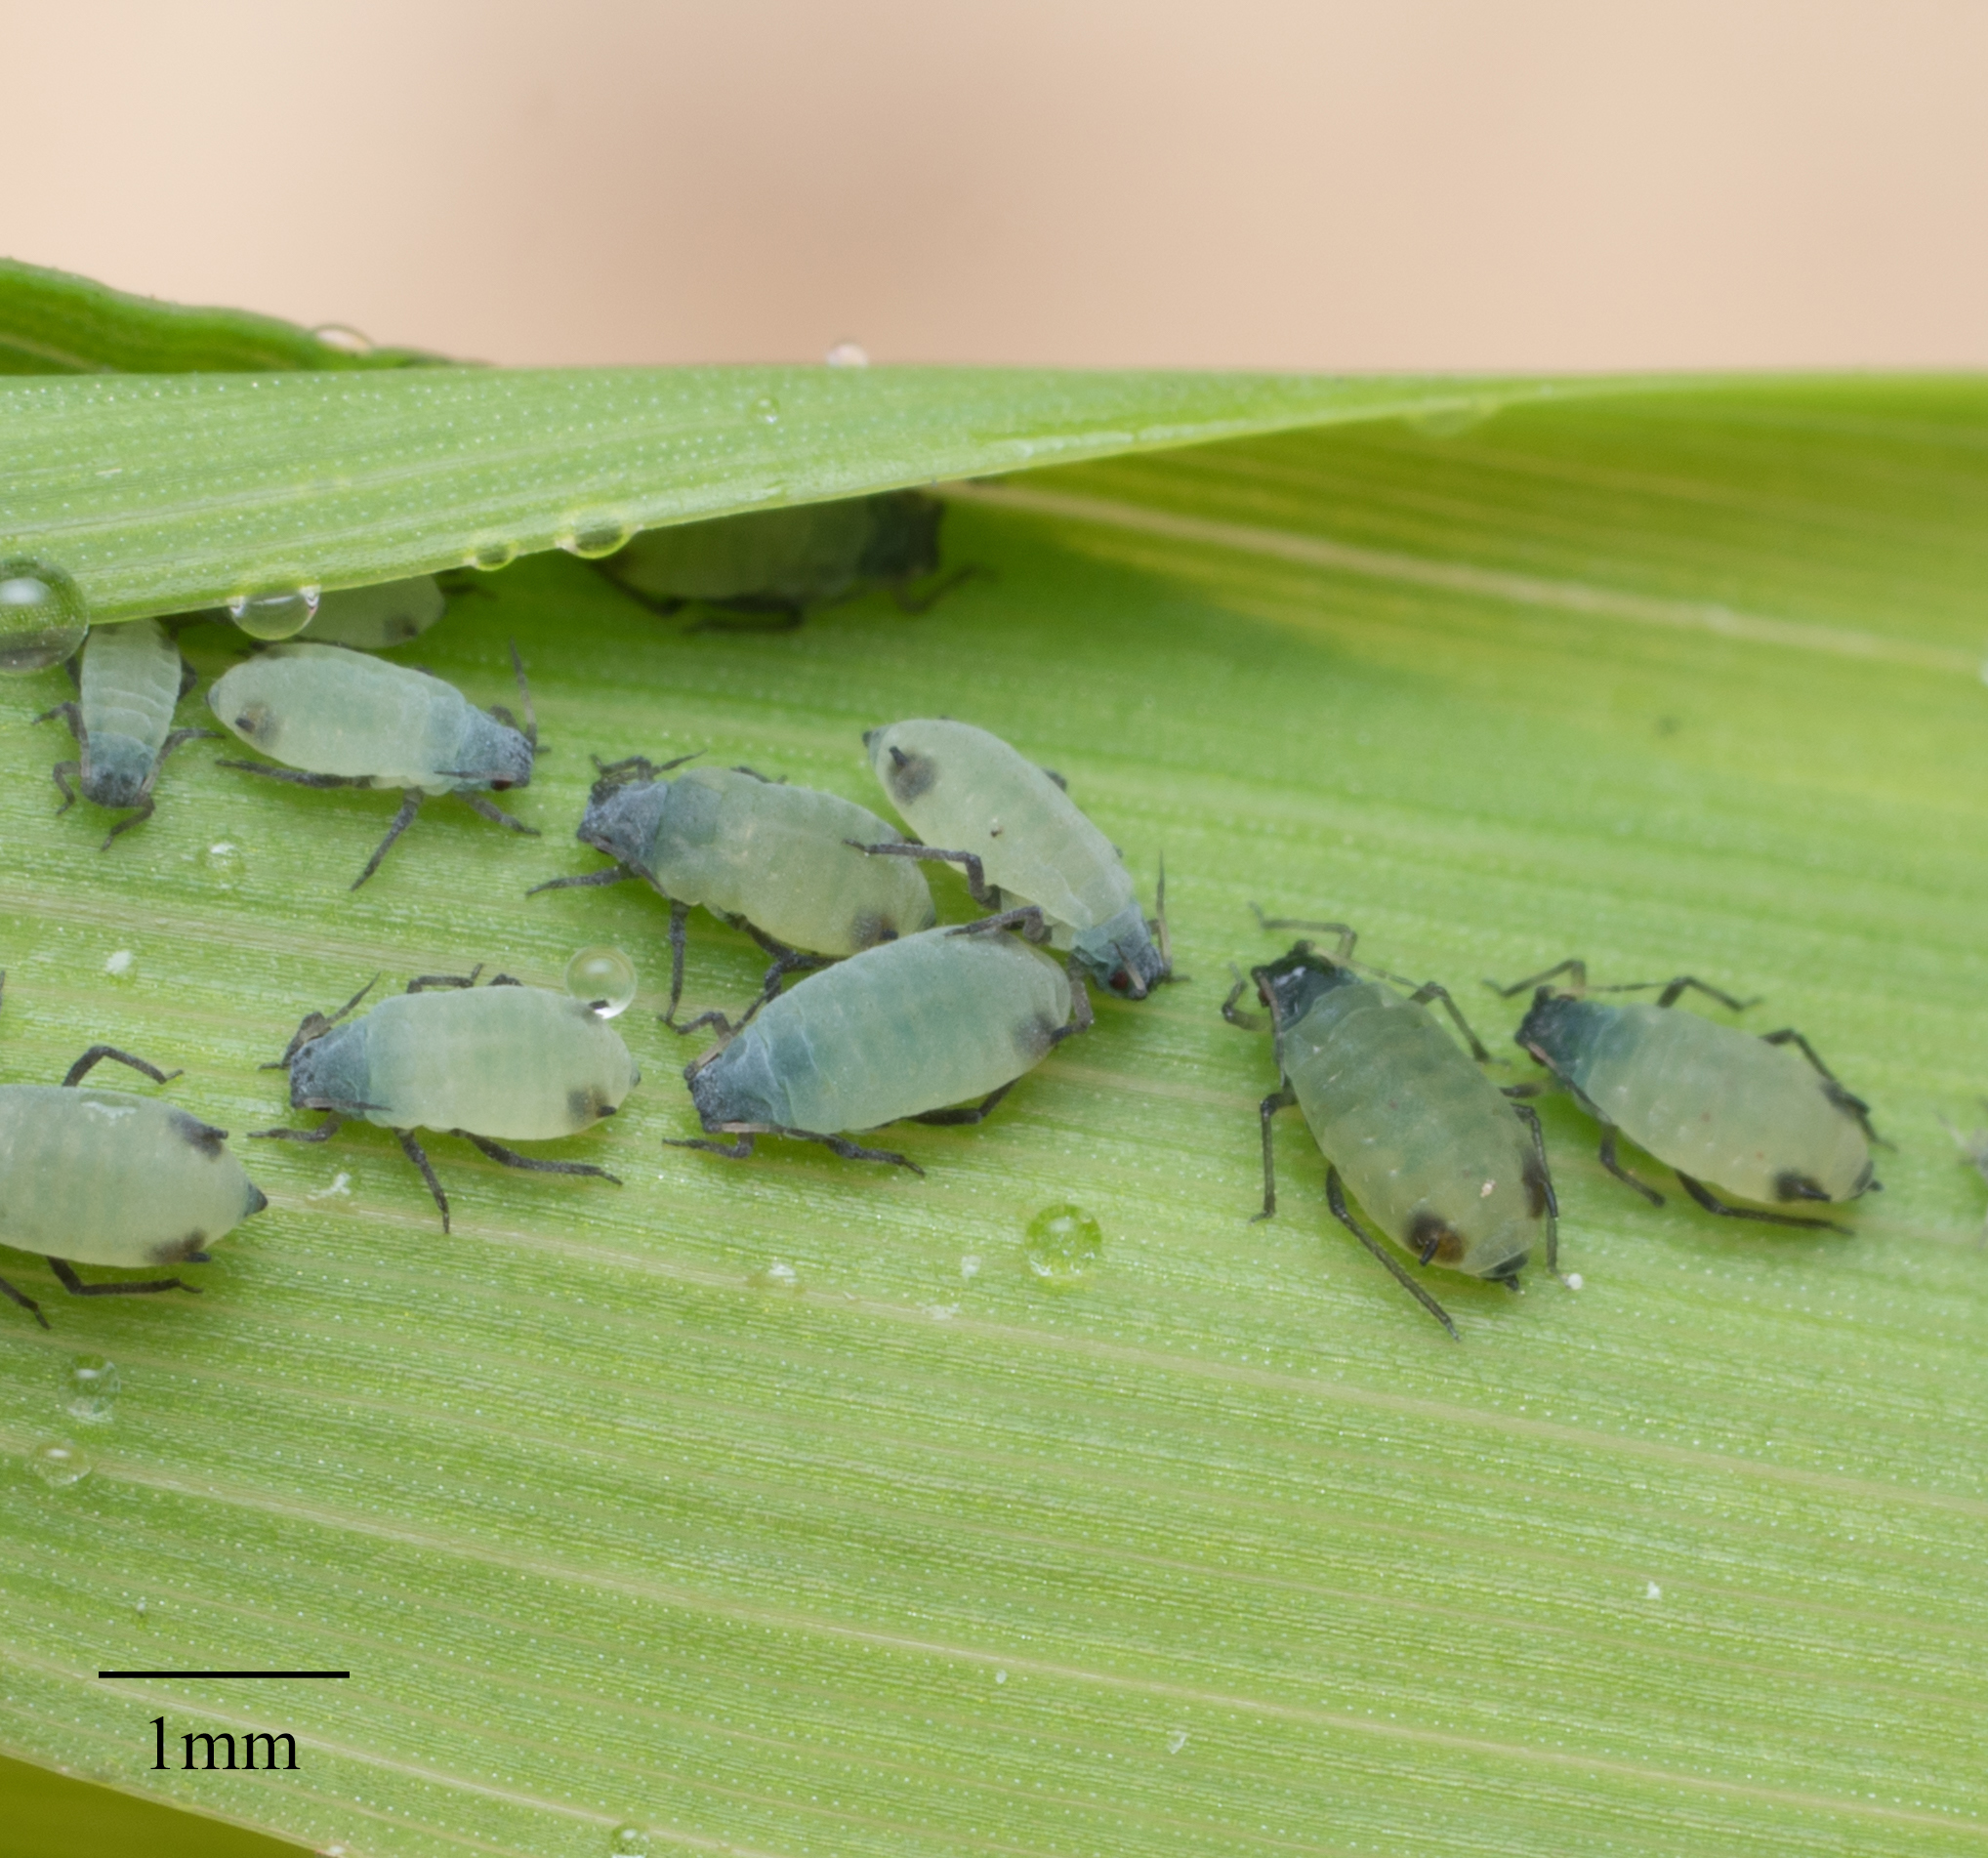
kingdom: Animalia
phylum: Arthropoda
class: Insecta
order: Hemiptera
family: Aphididae
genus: Rhopalosiphum
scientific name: Rhopalosiphum maidis
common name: Corn leaf aphid
